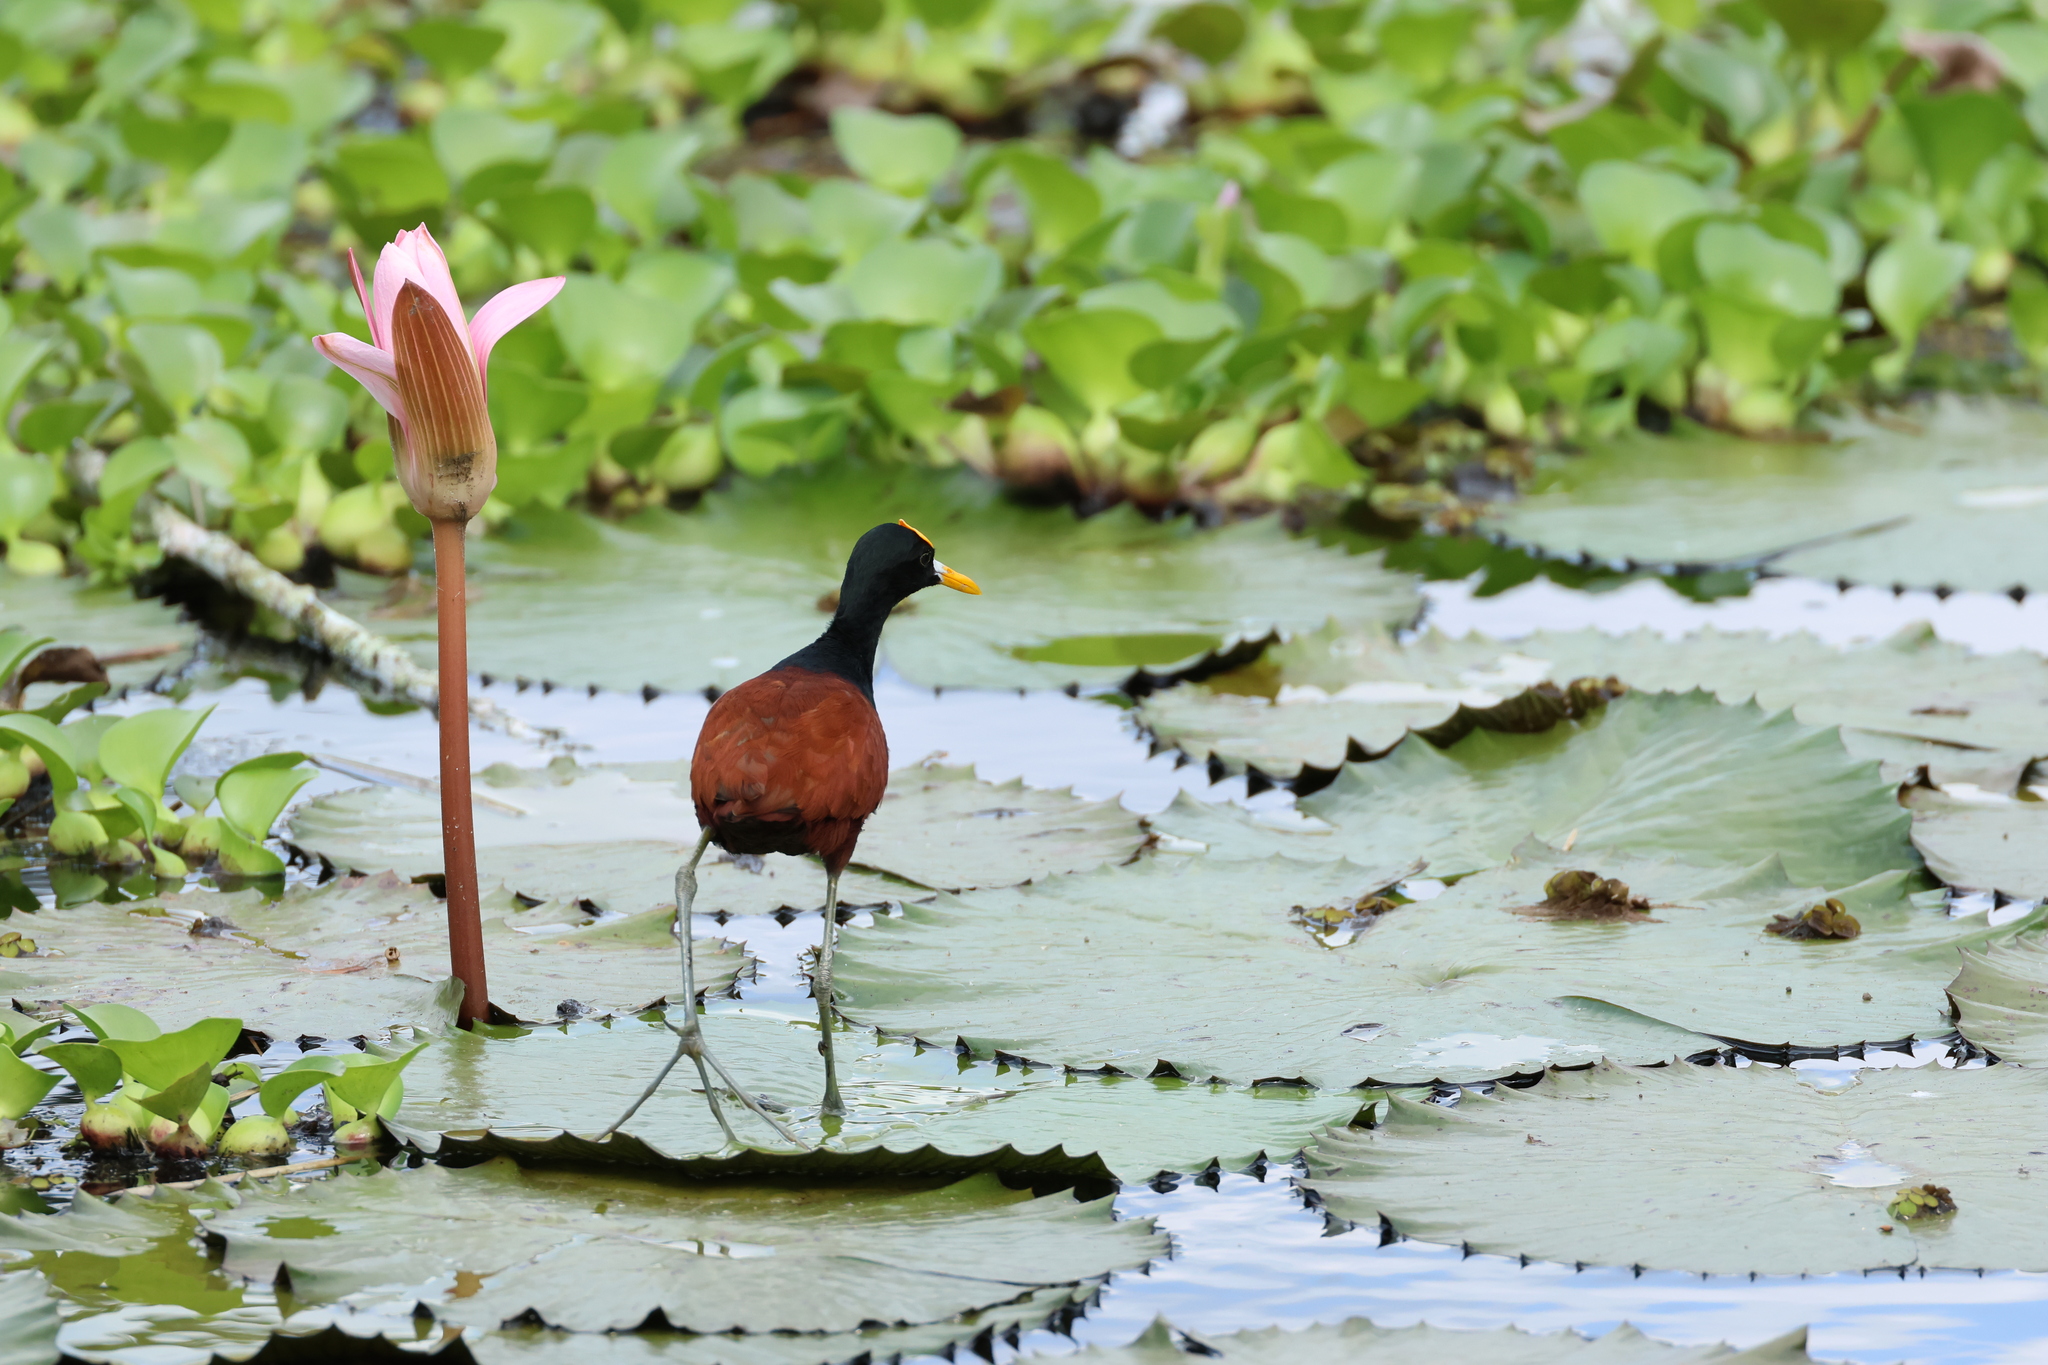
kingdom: Animalia
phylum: Chordata
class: Aves
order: Charadriiformes
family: Jacanidae
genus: Jacana
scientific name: Jacana spinosa
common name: Northern jacana
